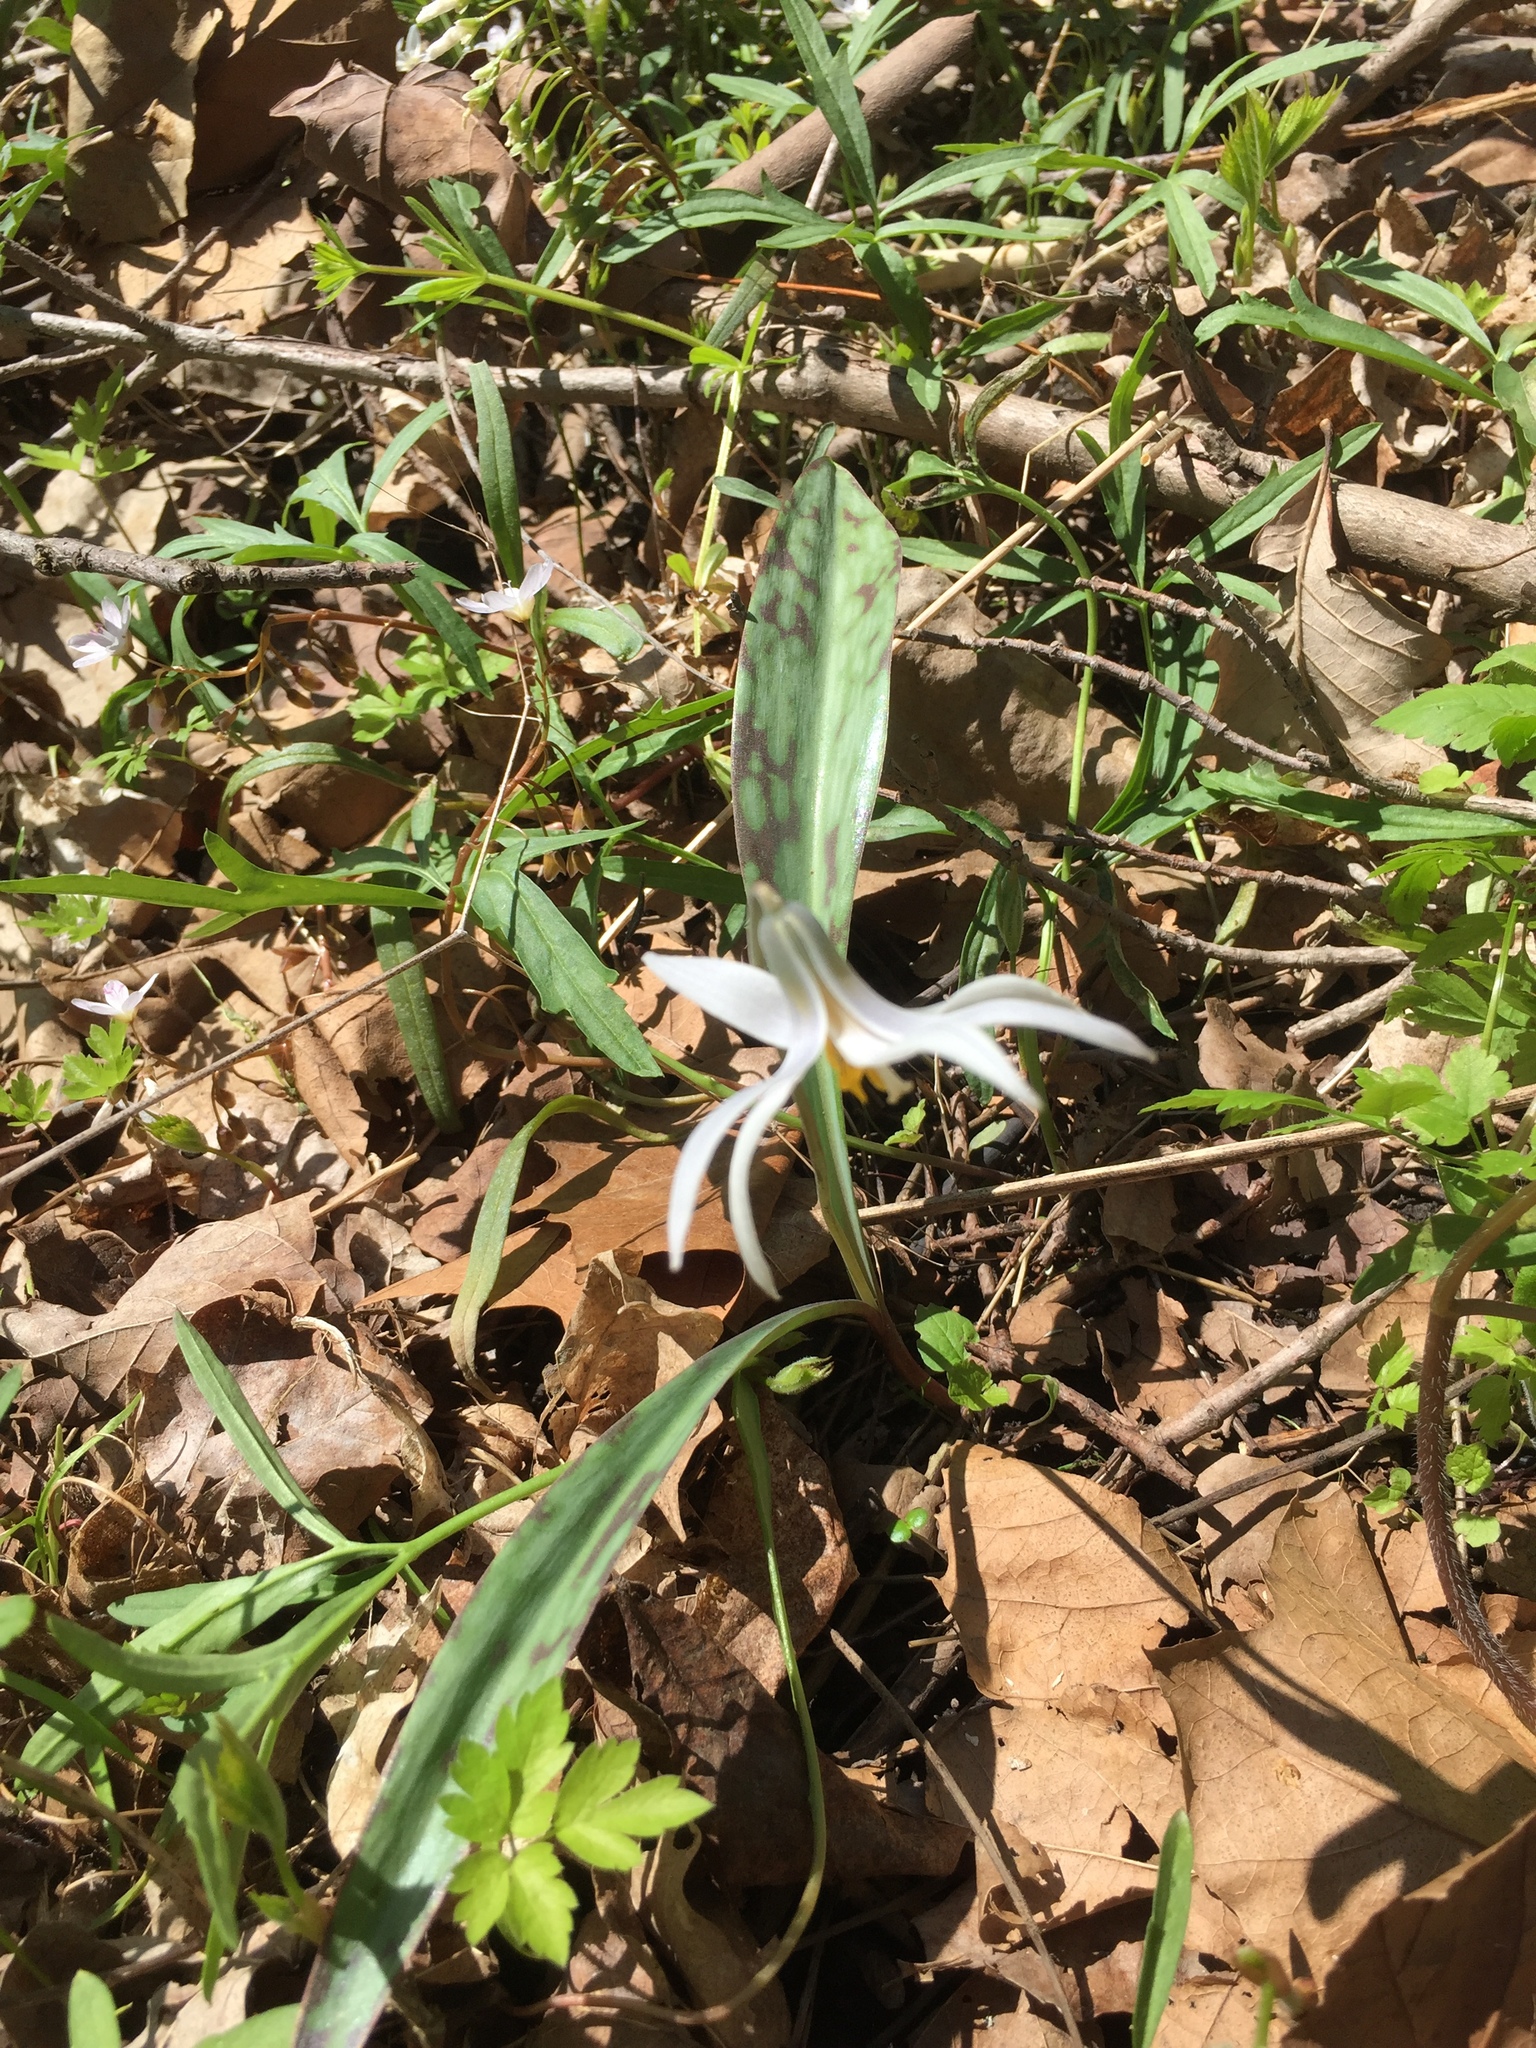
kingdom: Plantae
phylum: Tracheophyta
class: Liliopsida
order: Liliales
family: Liliaceae
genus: Erythronium
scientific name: Erythronium albidum
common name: White trout-lily
